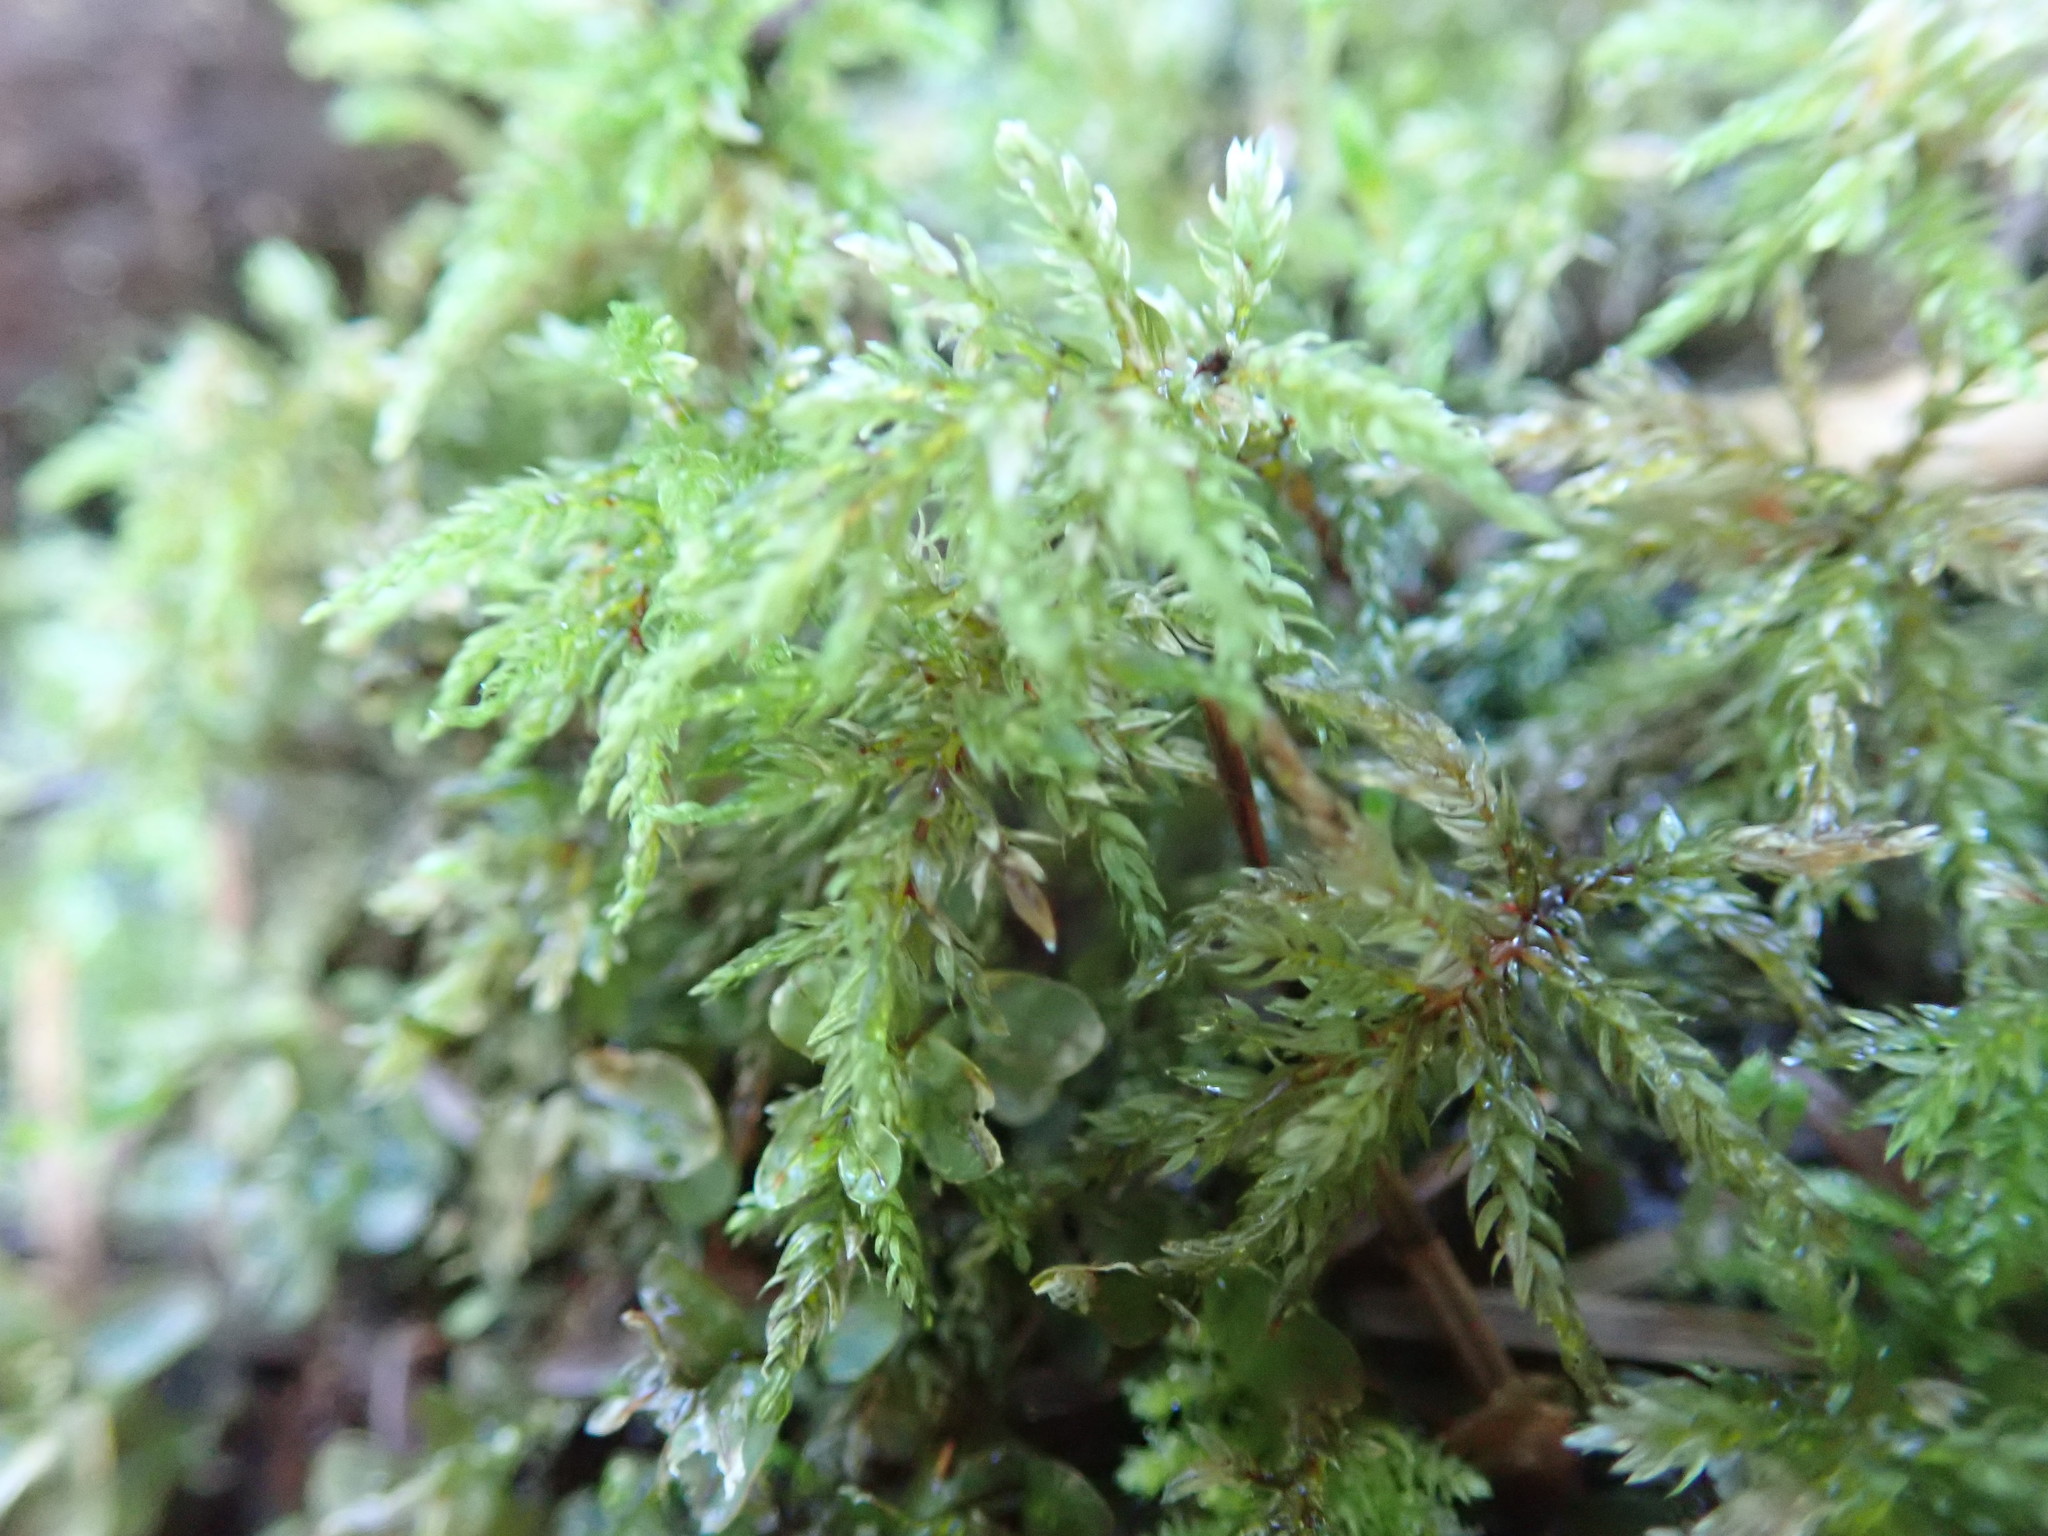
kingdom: Plantae
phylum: Bryophyta
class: Bryopsida
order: Bryales
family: Mniaceae
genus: Leucolepis
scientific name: Leucolepis acanthoneura
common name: Leucolepis umbrella moss
